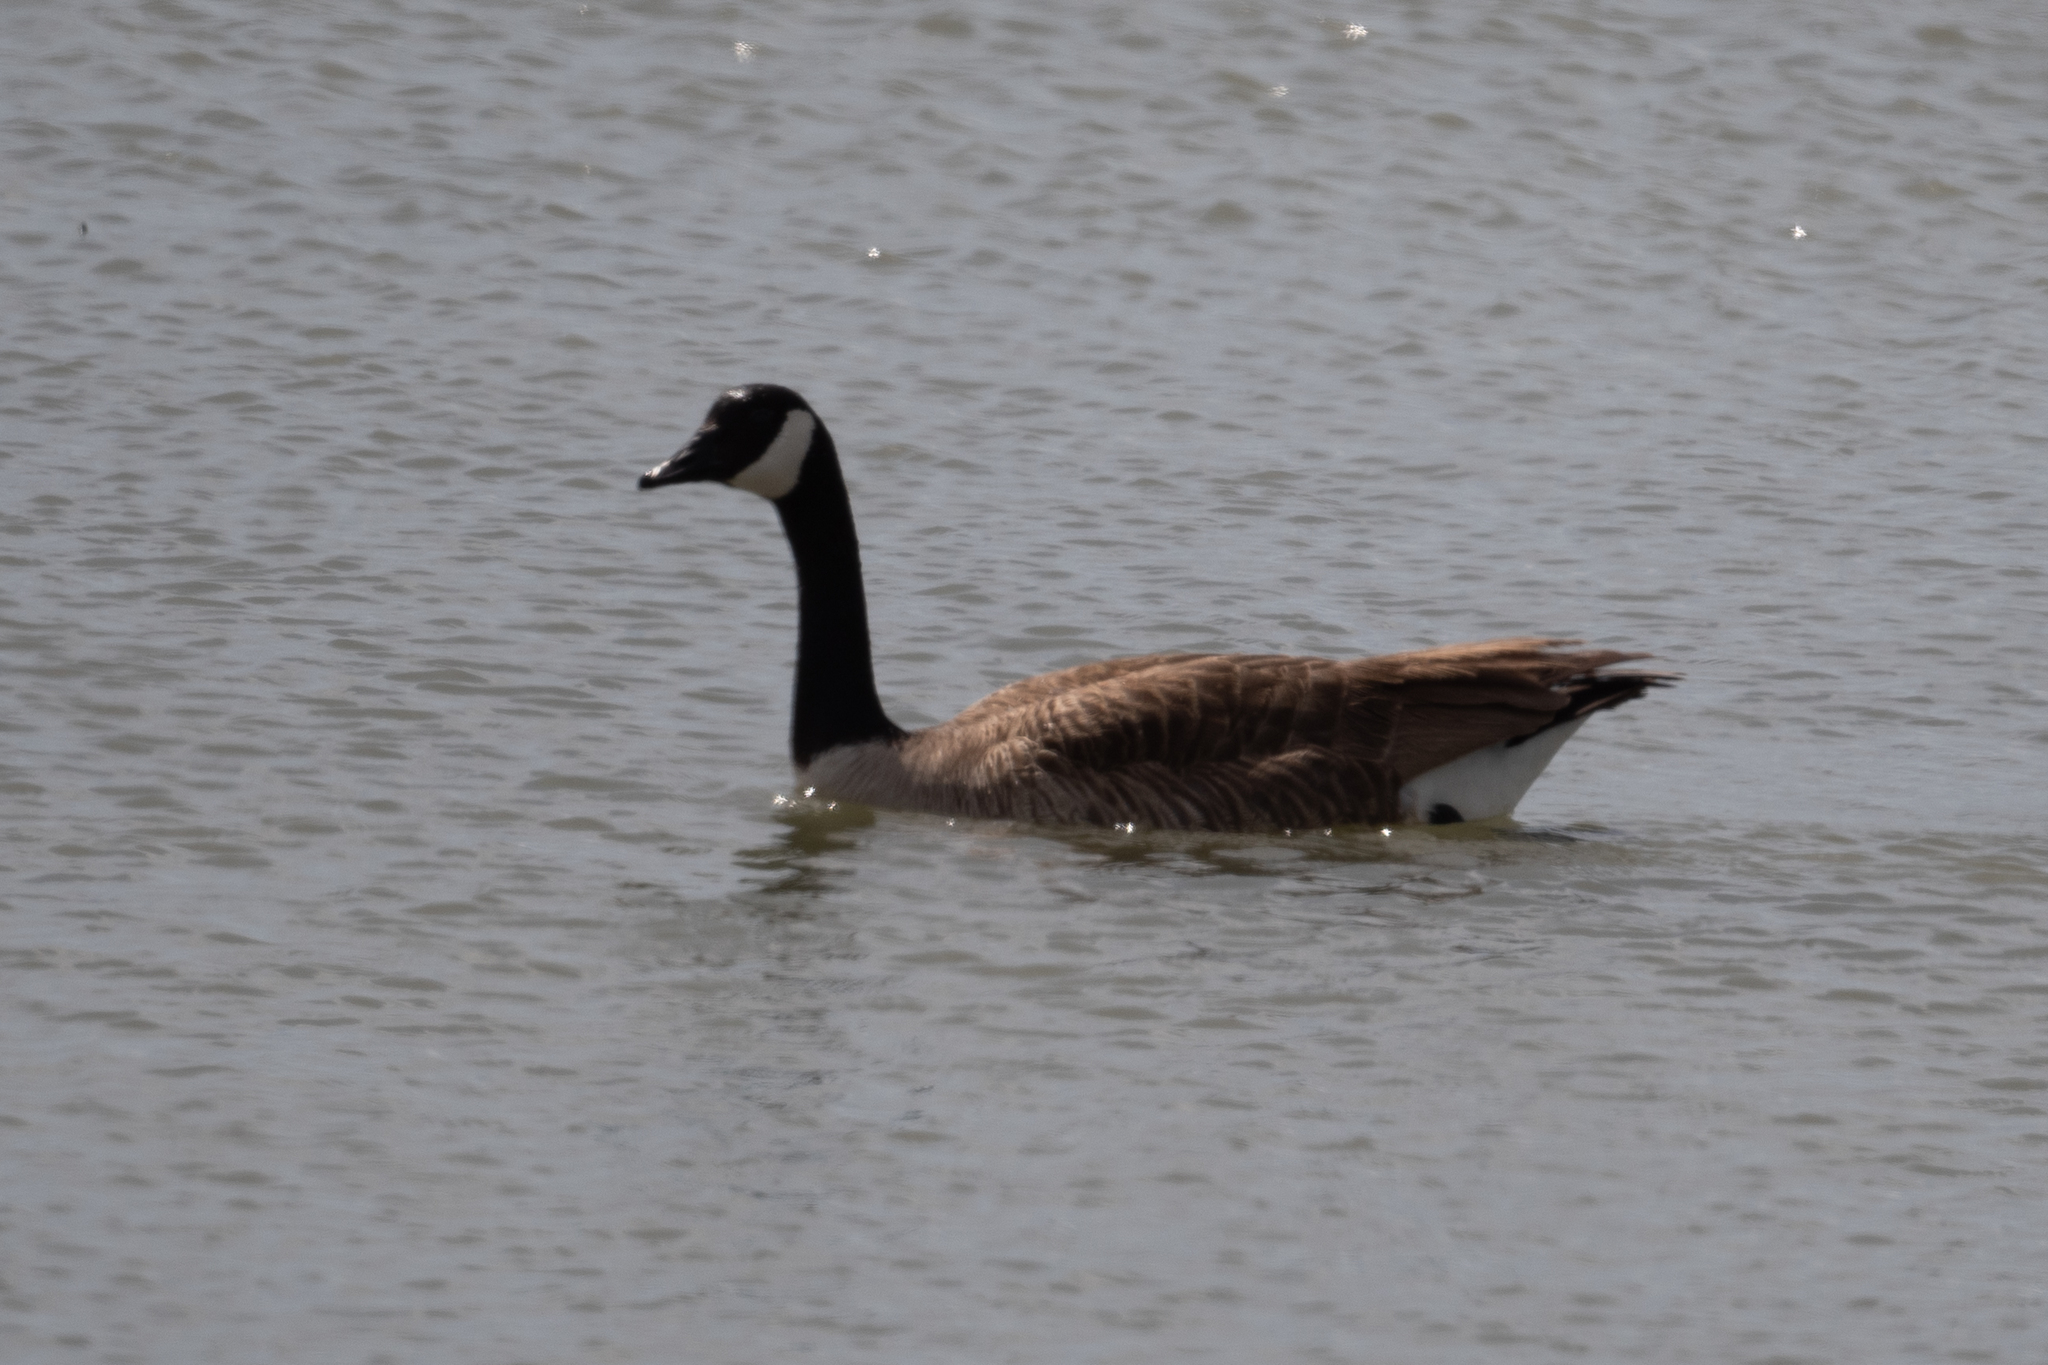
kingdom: Animalia
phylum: Chordata
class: Aves
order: Anseriformes
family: Anatidae
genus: Branta
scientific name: Branta canadensis
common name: Canada goose
